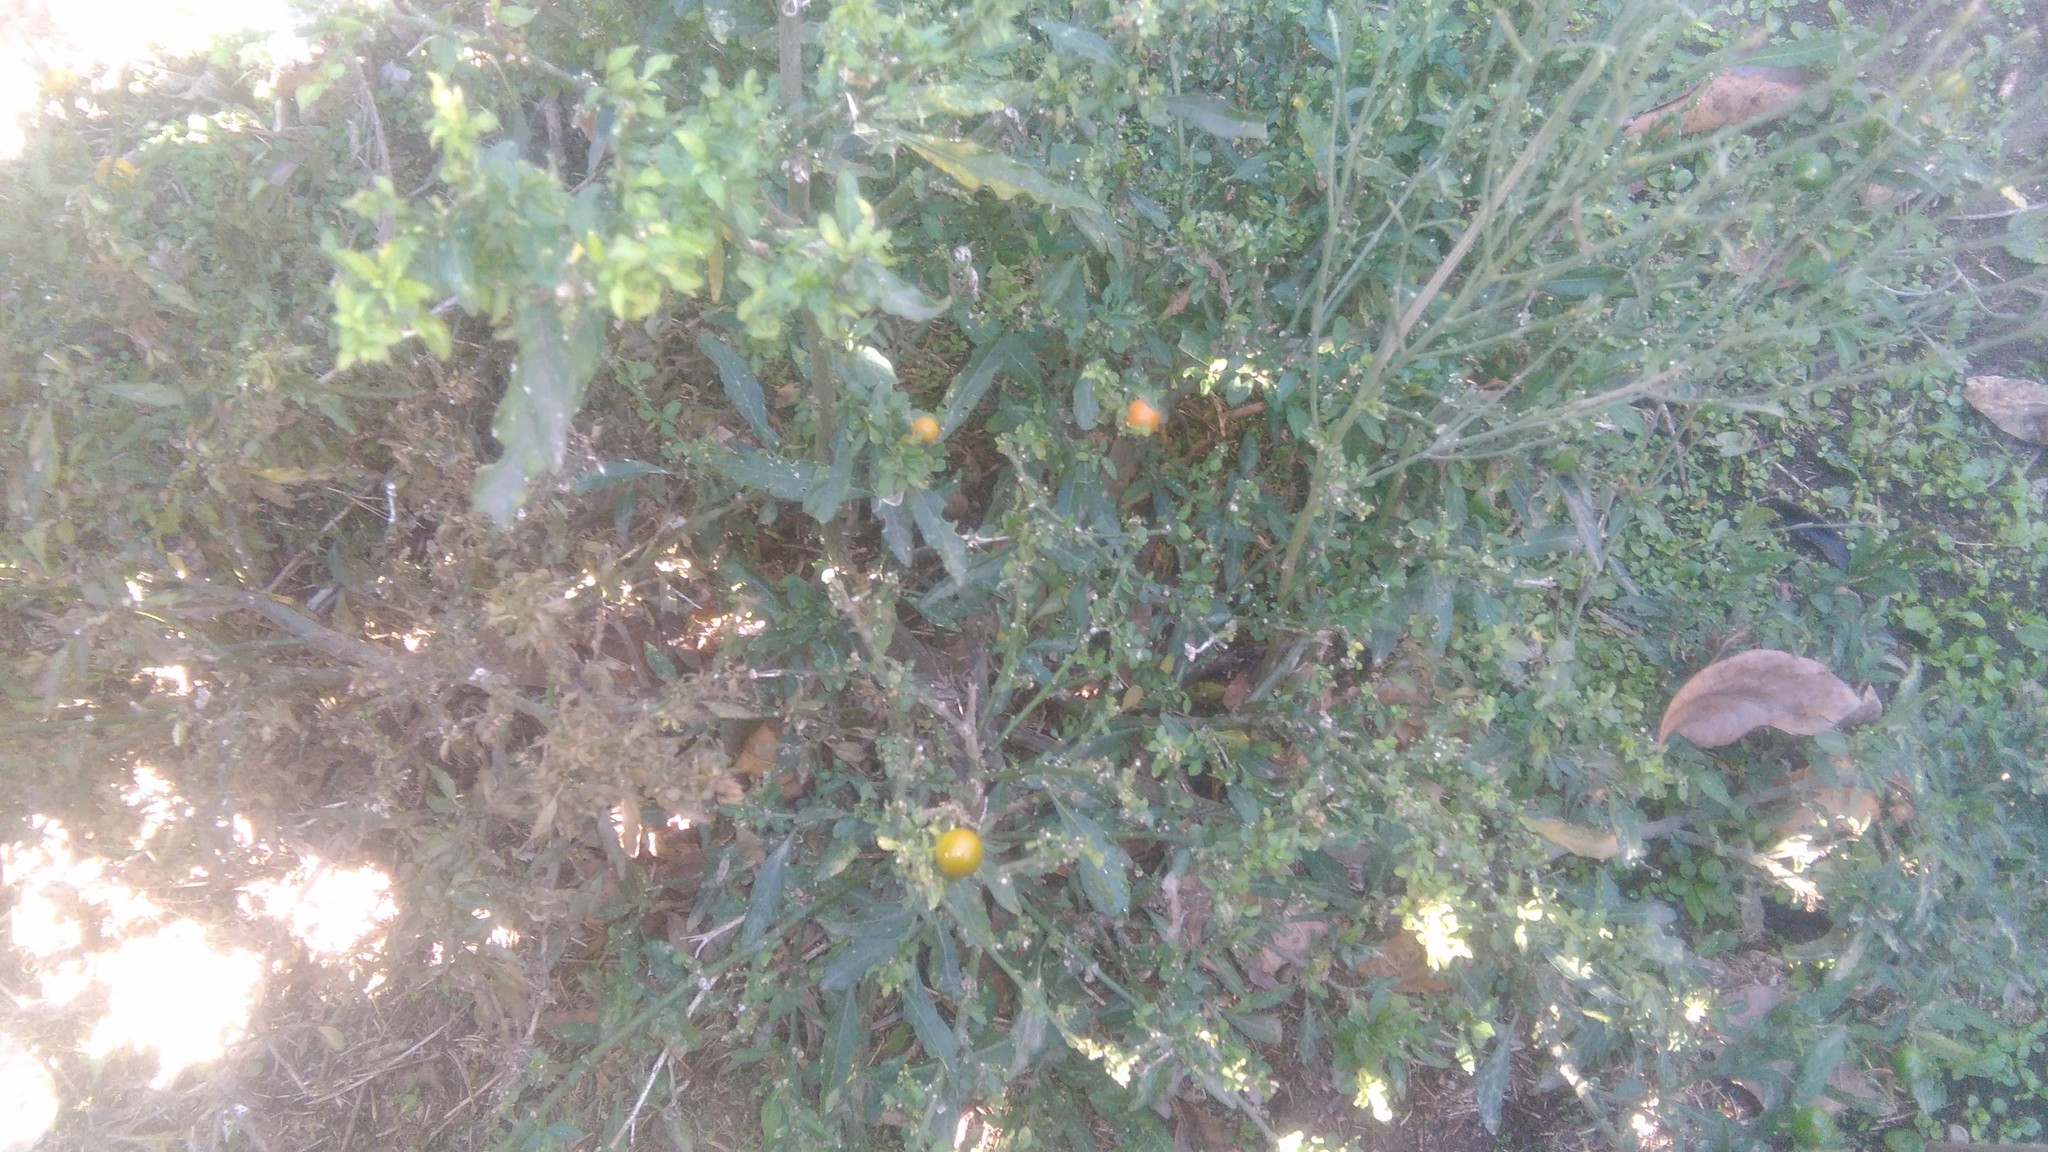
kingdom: Plantae
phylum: Tracheophyta
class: Magnoliopsida
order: Solanales
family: Solanaceae
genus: Solanum
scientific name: Solanum pseudocapsicum
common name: Jerusalem cherry
